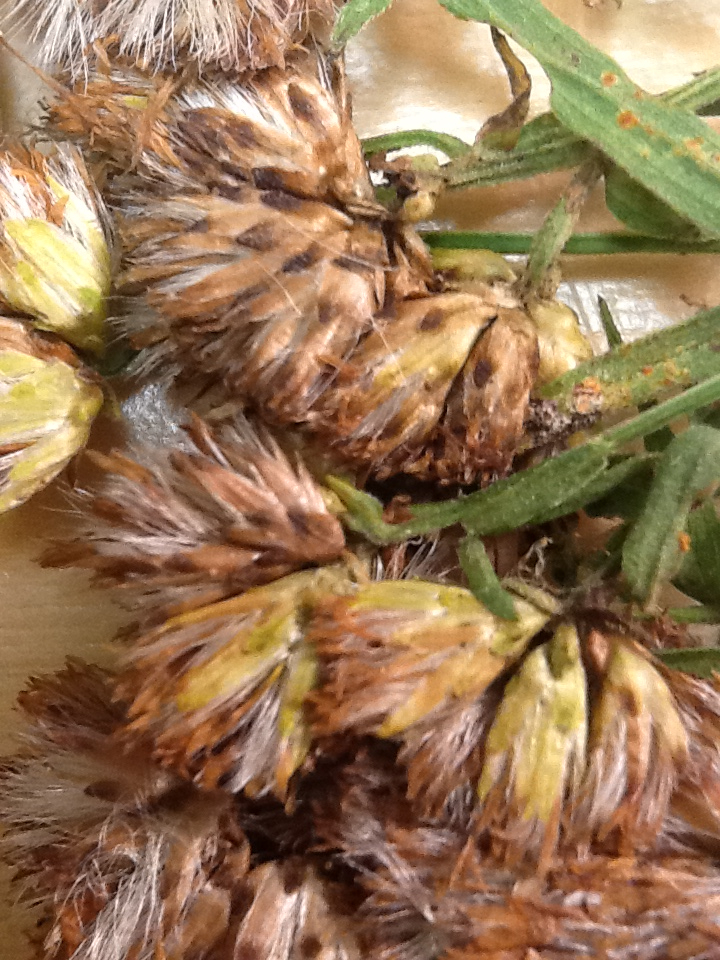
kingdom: Plantae
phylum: Tracheophyta
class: Magnoliopsida
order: Asterales
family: Asteraceae
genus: Euthamia
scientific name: Euthamia graminifolia
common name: Common goldentop
